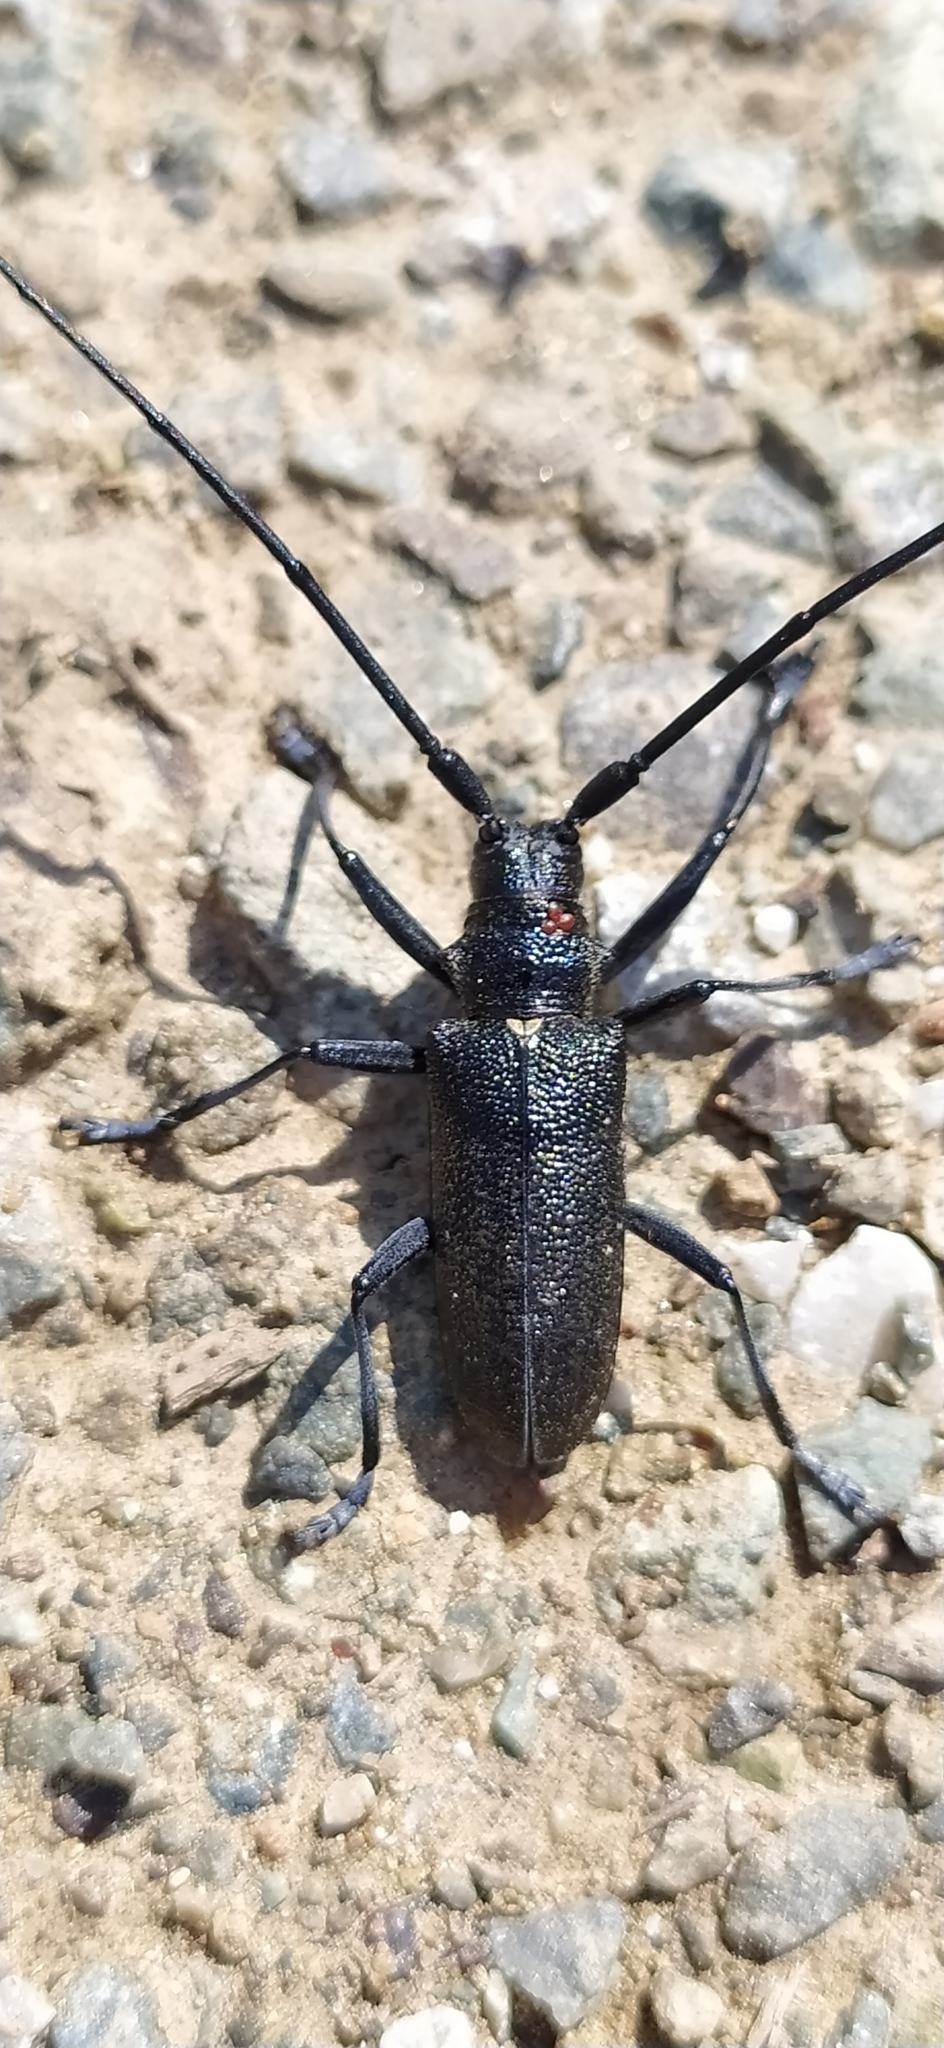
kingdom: Animalia
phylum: Arthropoda
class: Insecta
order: Coleoptera
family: Cerambycidae
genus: Monochamus
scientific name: Monochamus sutor
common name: Pine sawyer
